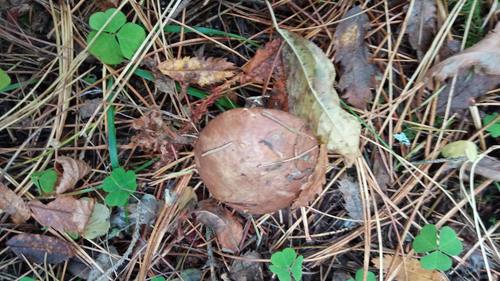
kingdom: Fungi
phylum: Basidiomycota
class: Agaricomycetes
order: Boletales
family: Suillaceae
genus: Suillus
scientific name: Suillus luteus
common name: Slippery jack
